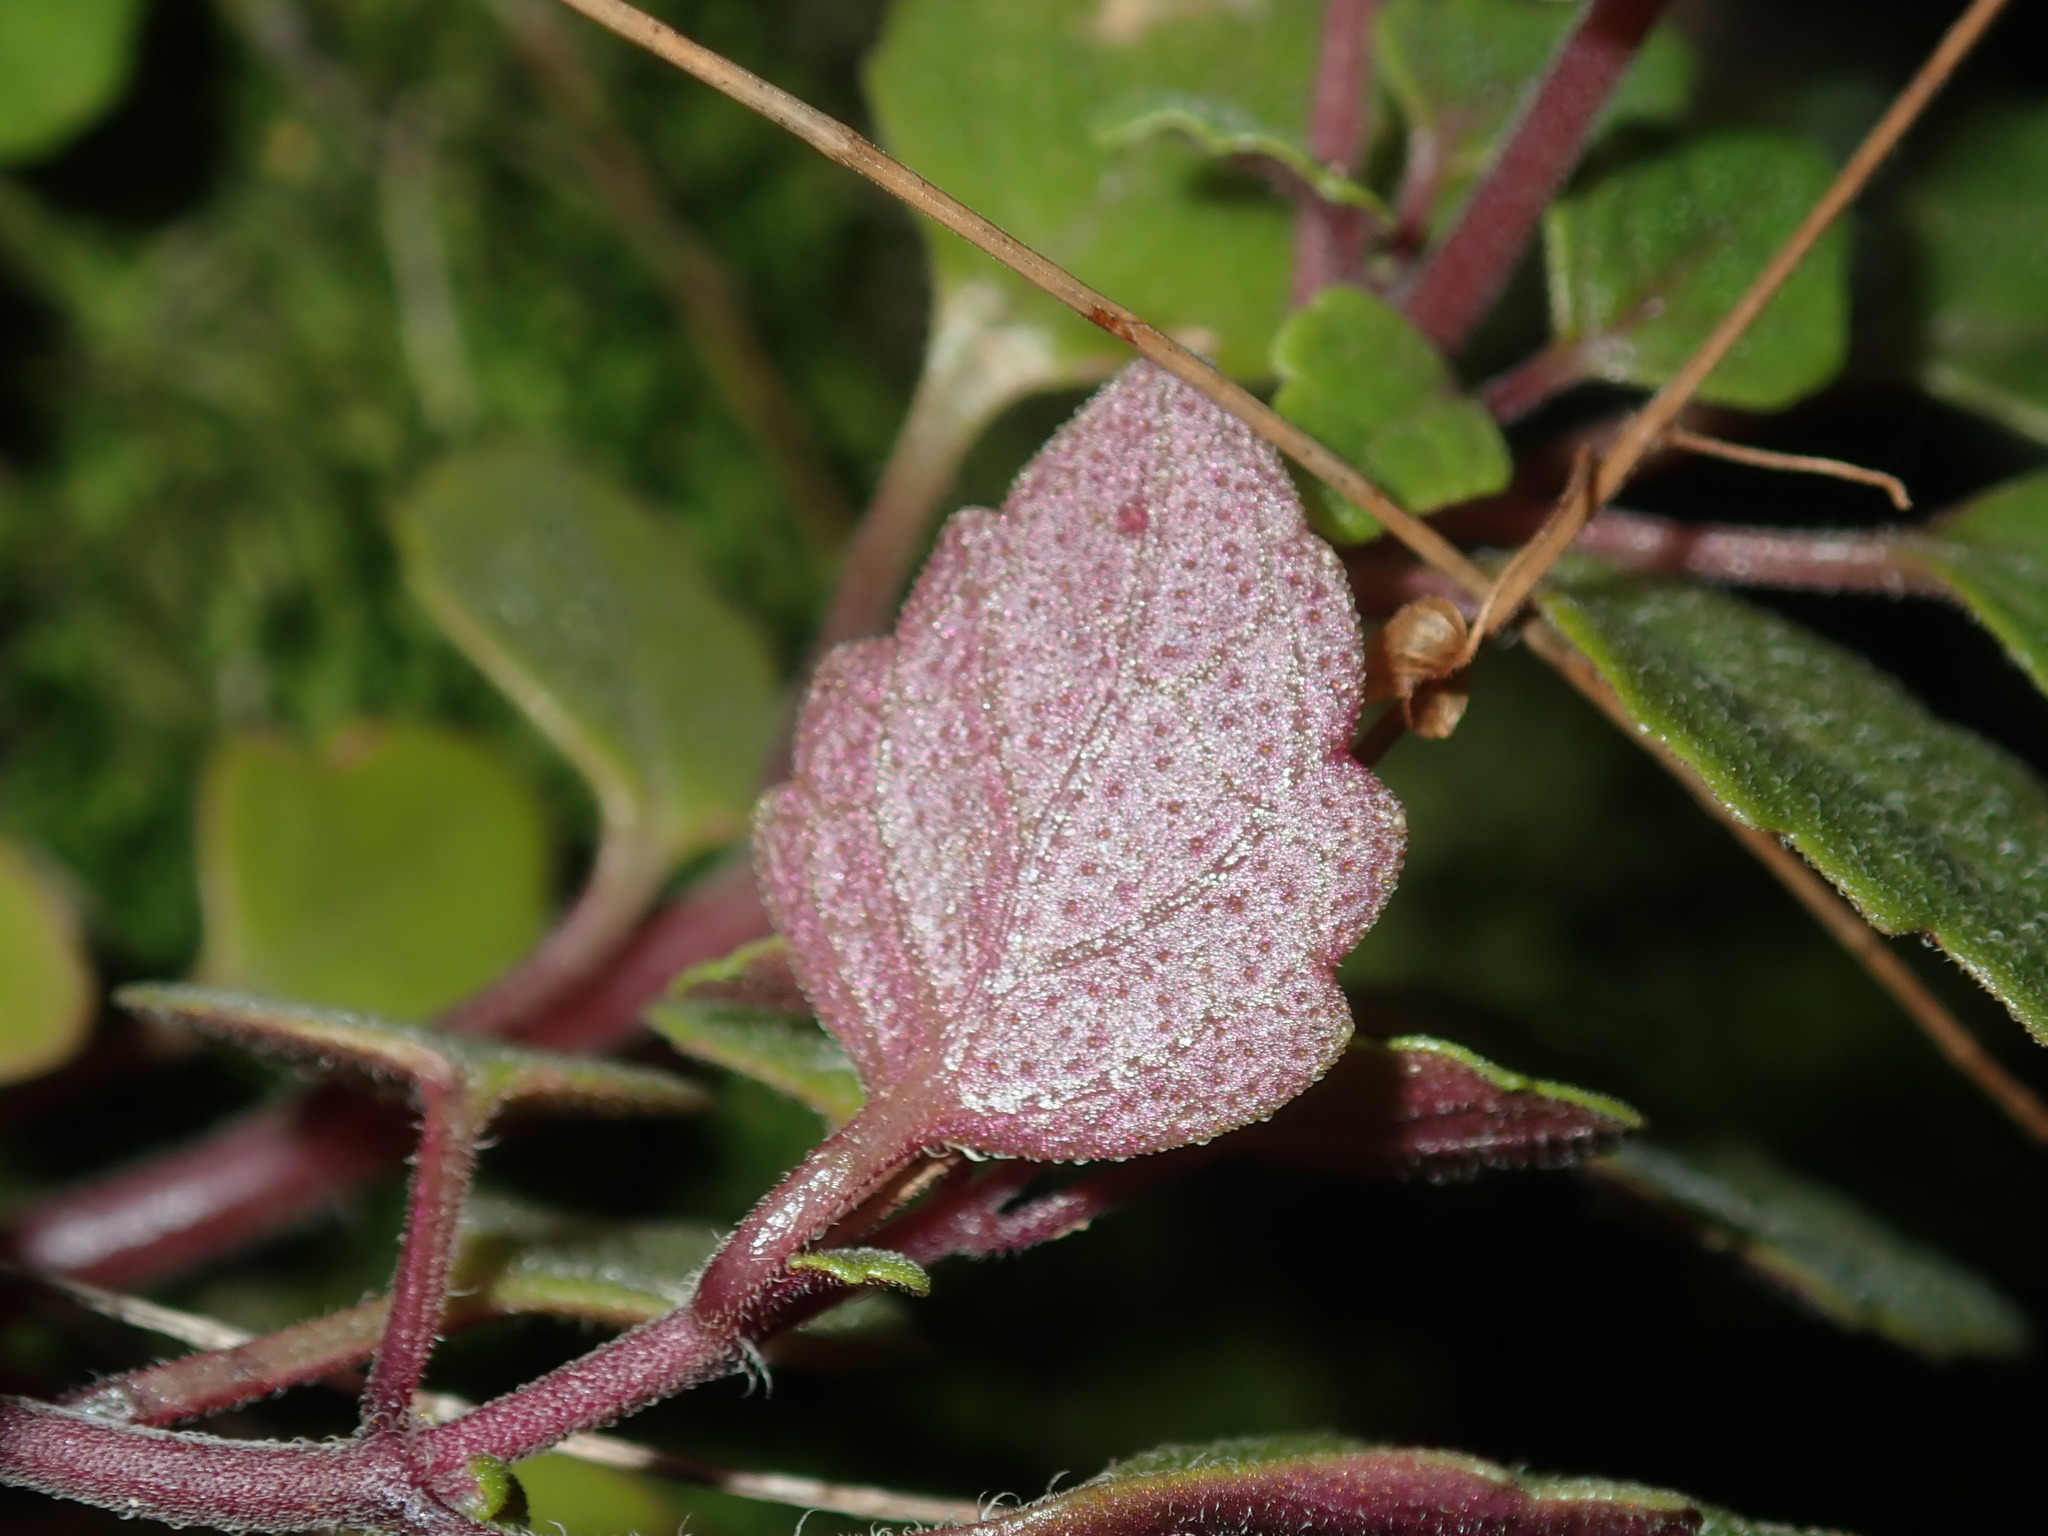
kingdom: Plantae
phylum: Tracheophyta
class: Magnoliopsida
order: Lamiales
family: Lamiaceae
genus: Coleus
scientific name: Coleus nitidus
